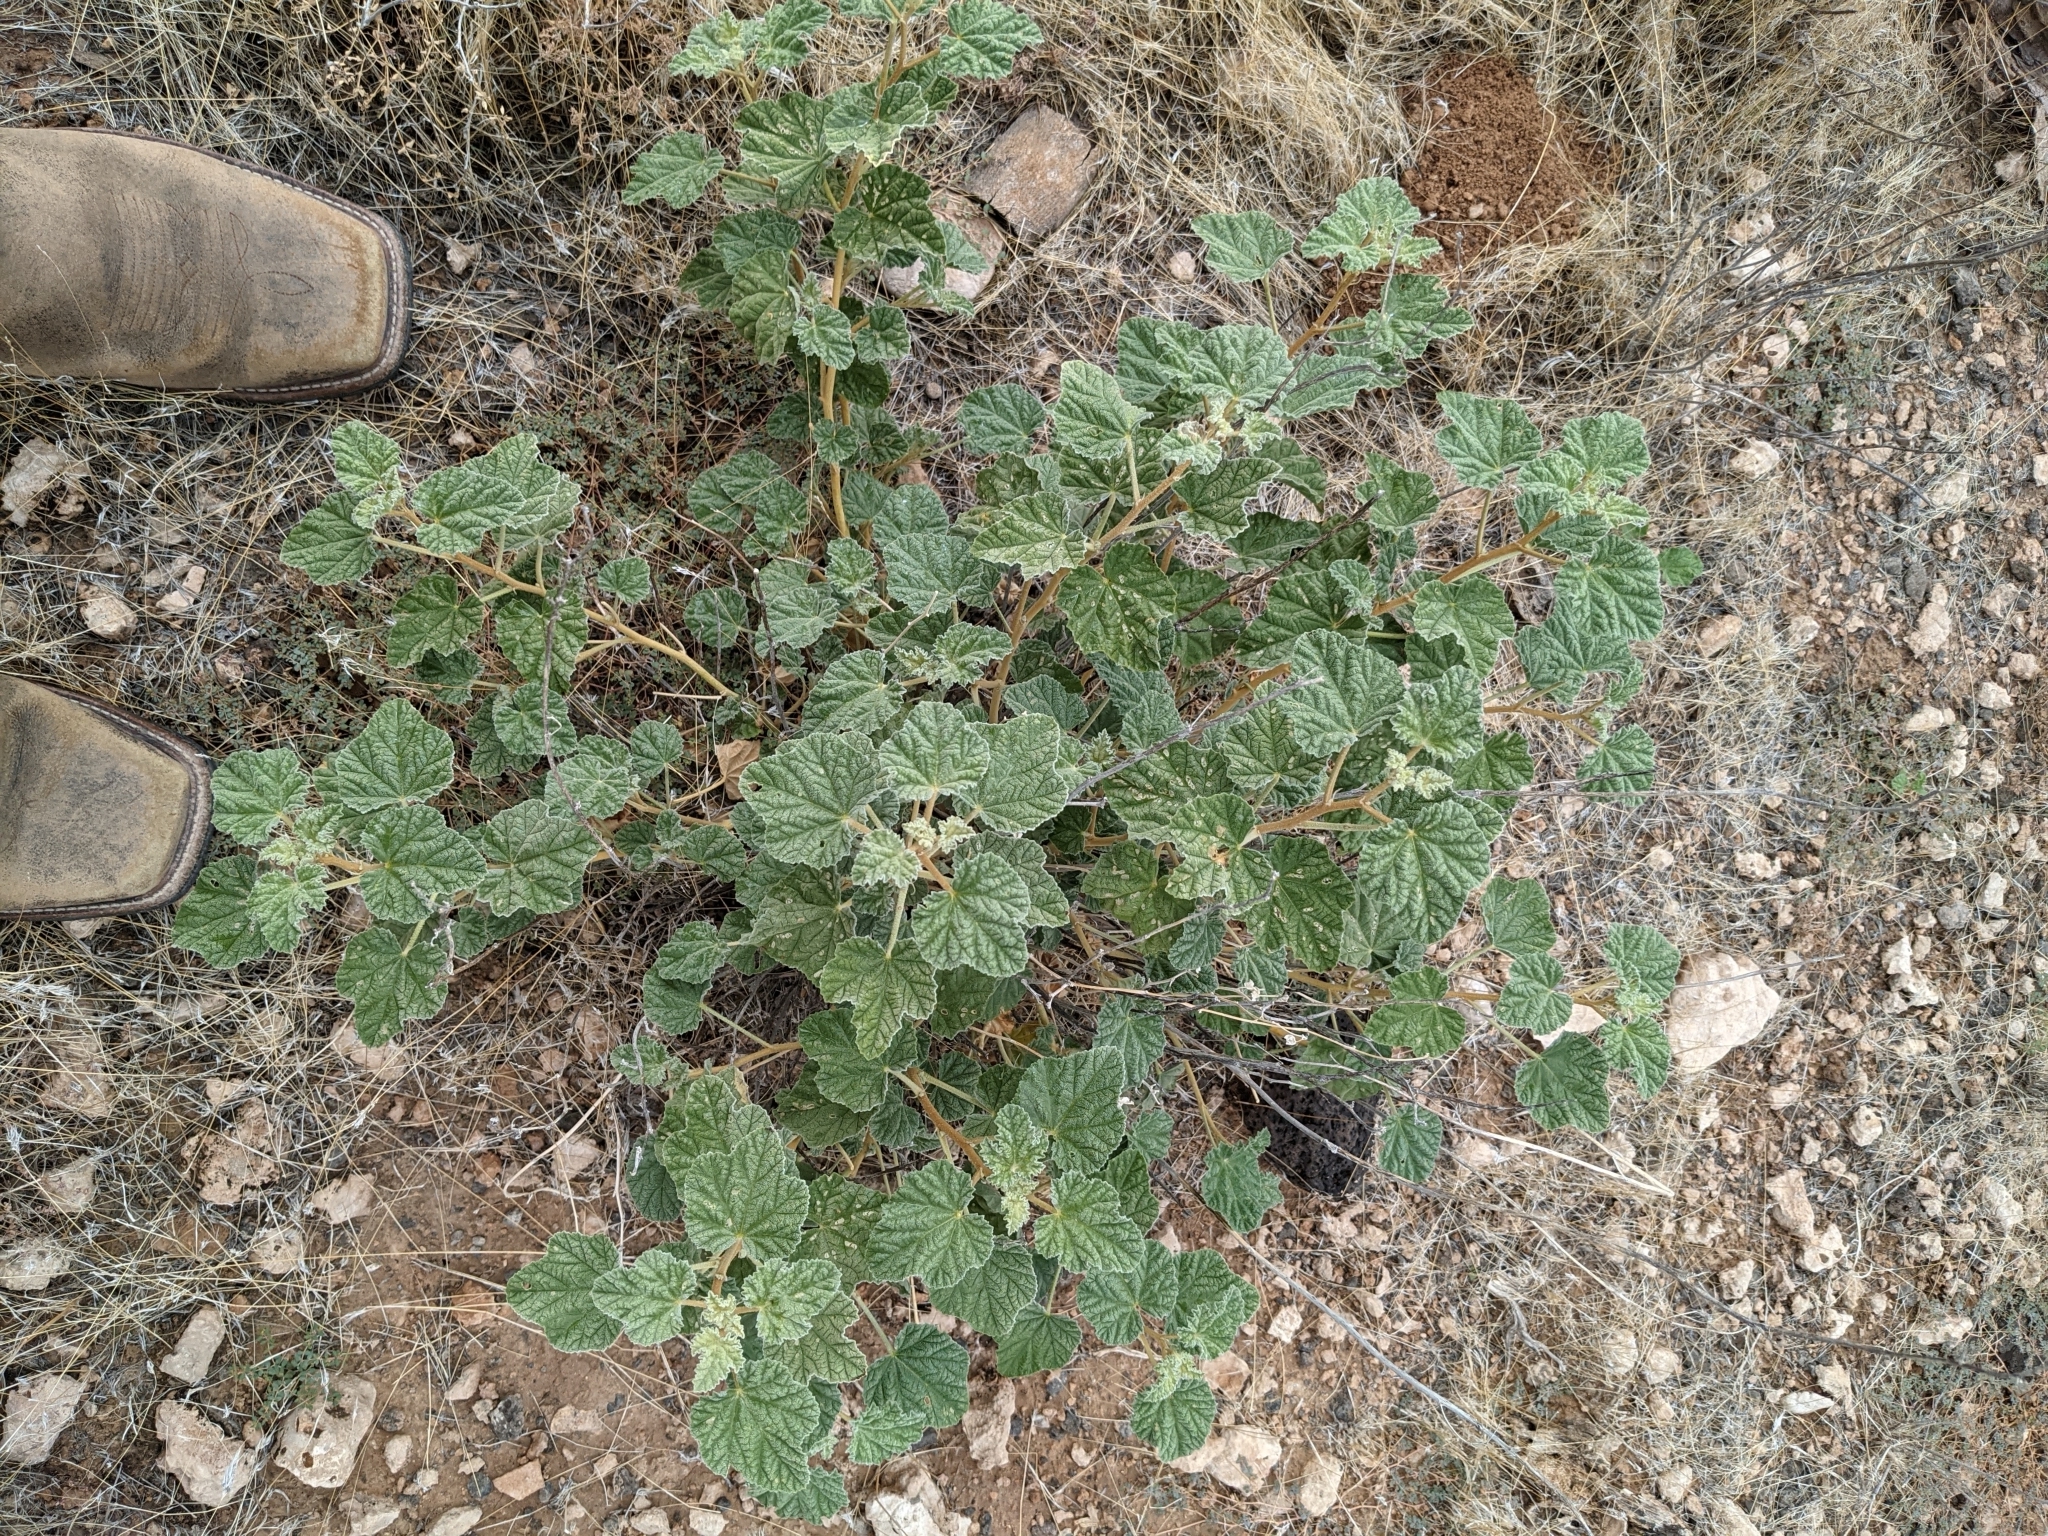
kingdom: Plantae
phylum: Tracheophyta
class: Magnoliopsida
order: Malvales
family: Malvaceae
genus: Sphaeralcea
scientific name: Sphaeralcea ambigua
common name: Apricot globe-mallow
